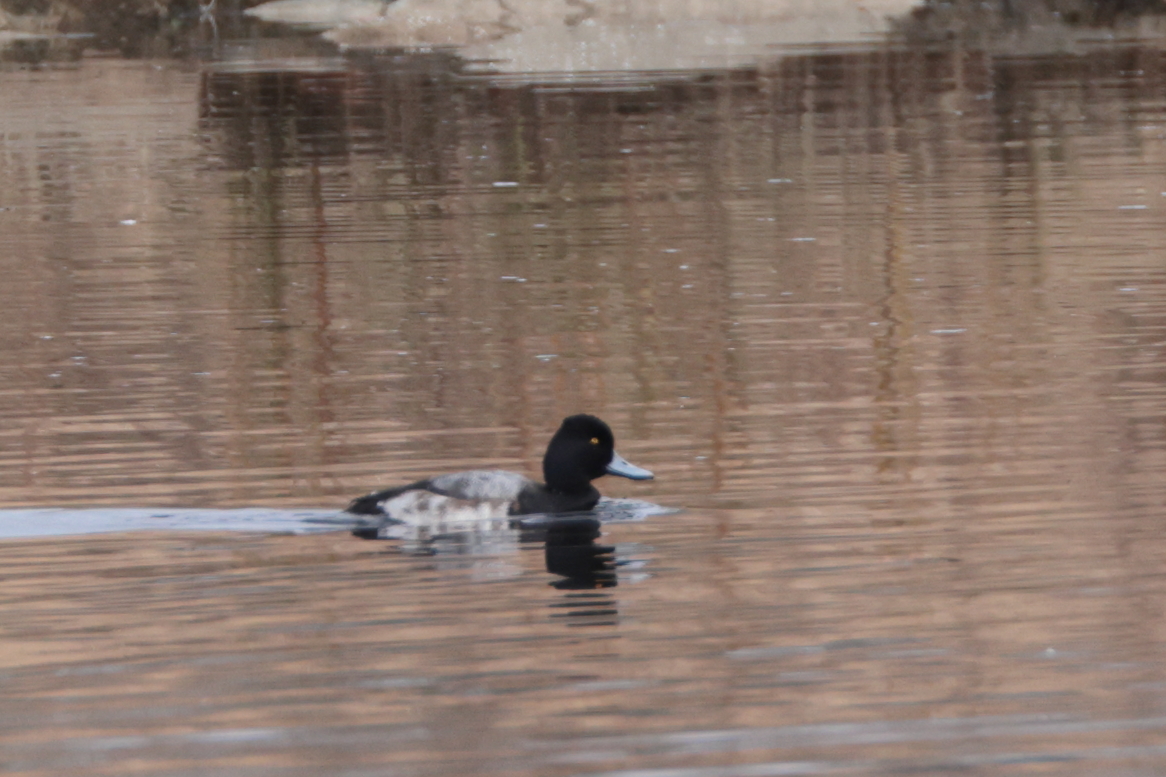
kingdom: Animalia
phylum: Chordata
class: Aves
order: Anseriformes
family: Anatidae
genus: Aythya
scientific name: Aythya affinis
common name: Lesser scaup
